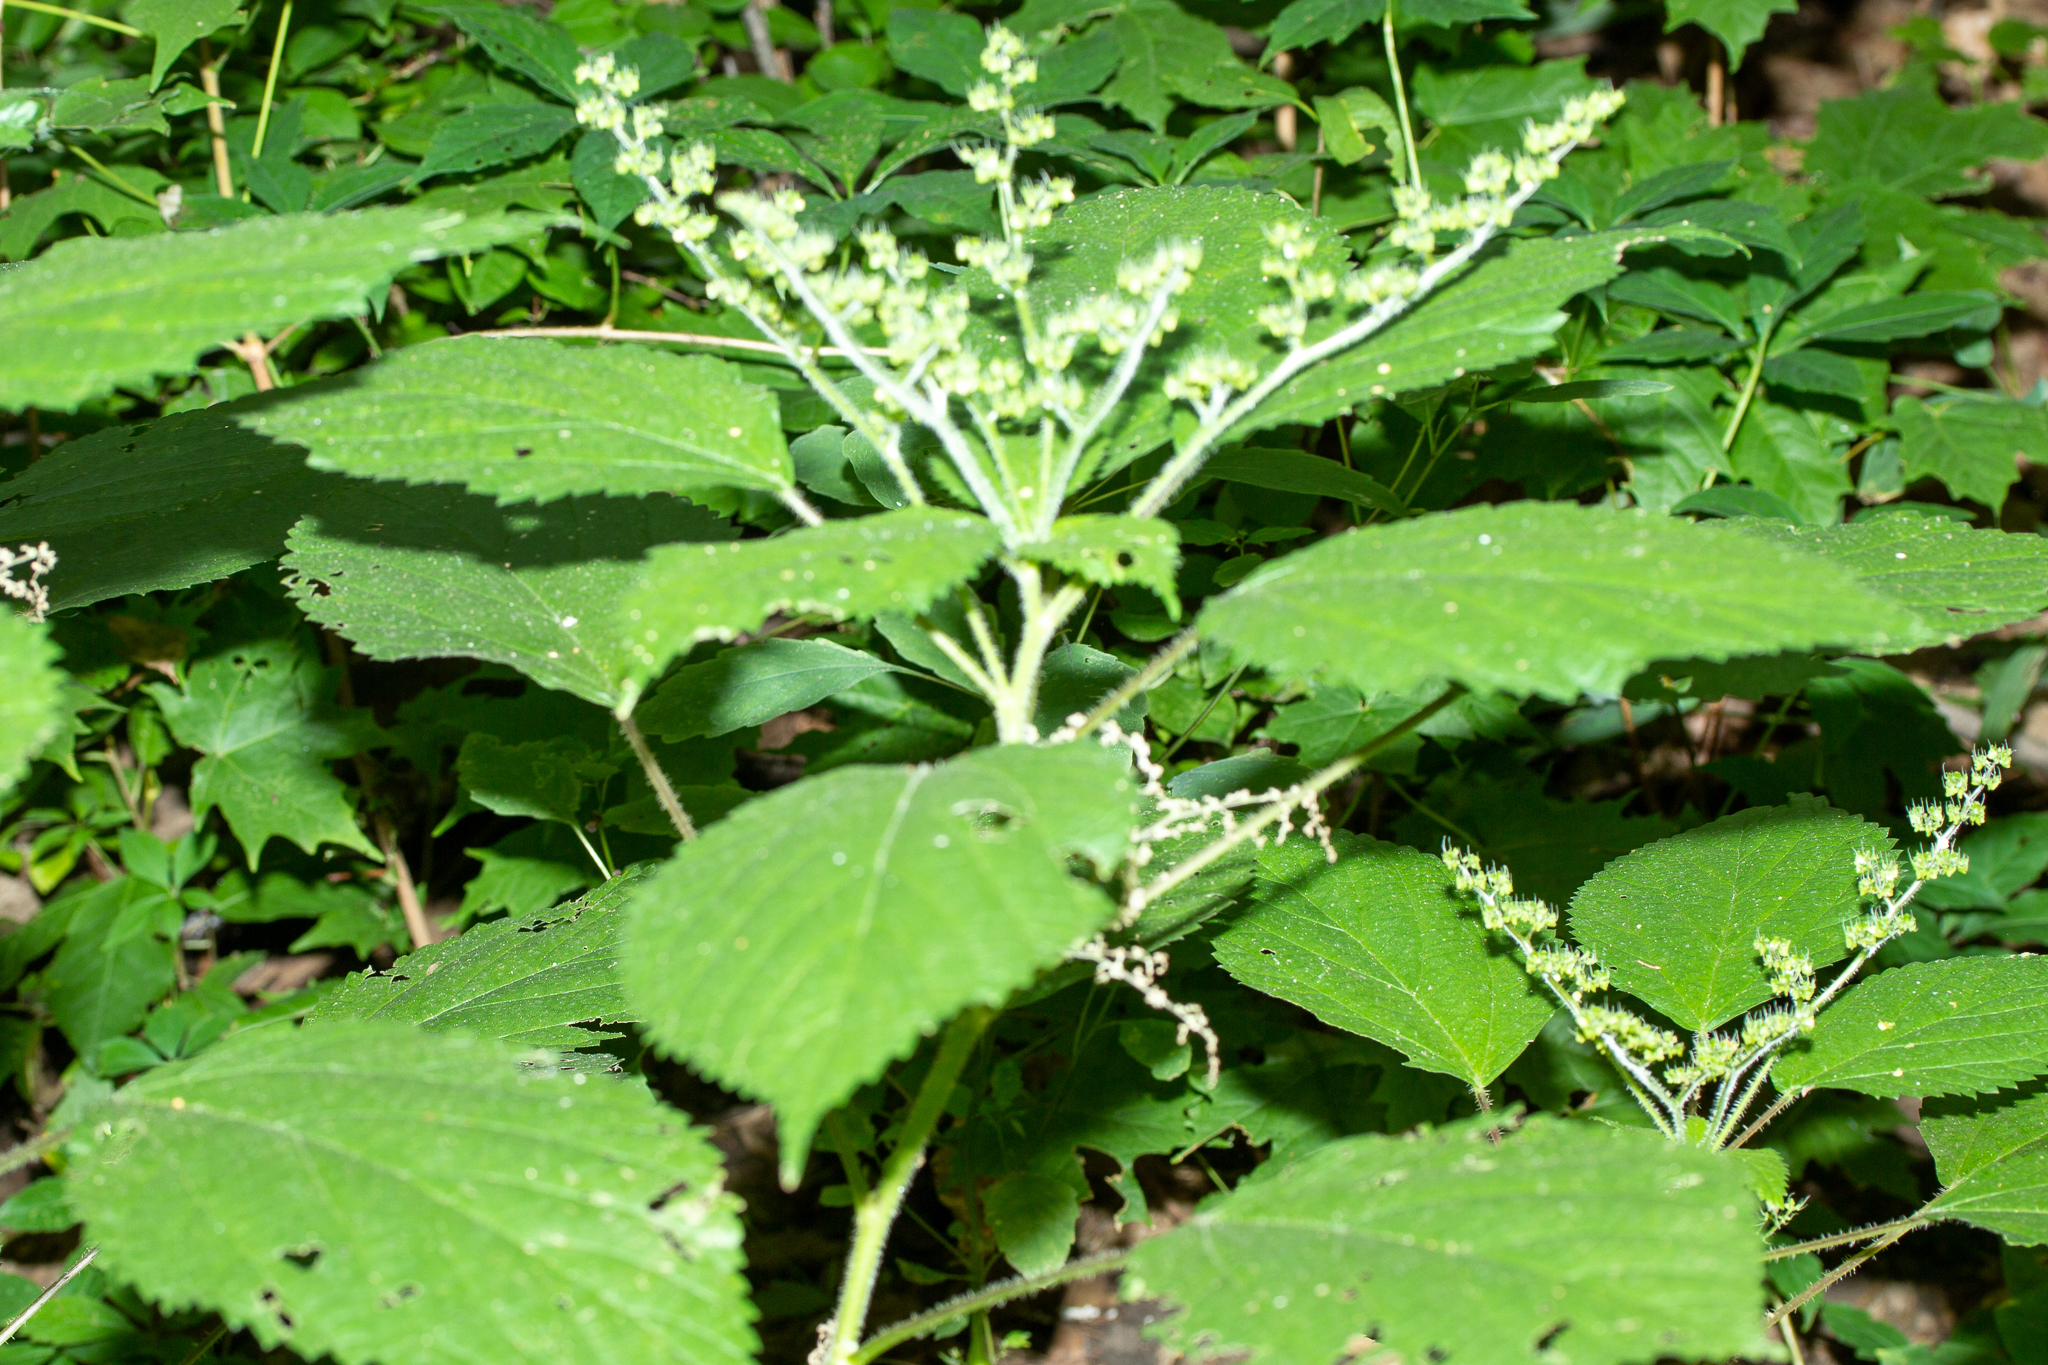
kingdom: Plantae
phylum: Tracheophyta
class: Magnoliopsida
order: Rosales
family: Urticaceae
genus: Laportea
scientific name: Laportea canadensis
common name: Canada nettle
